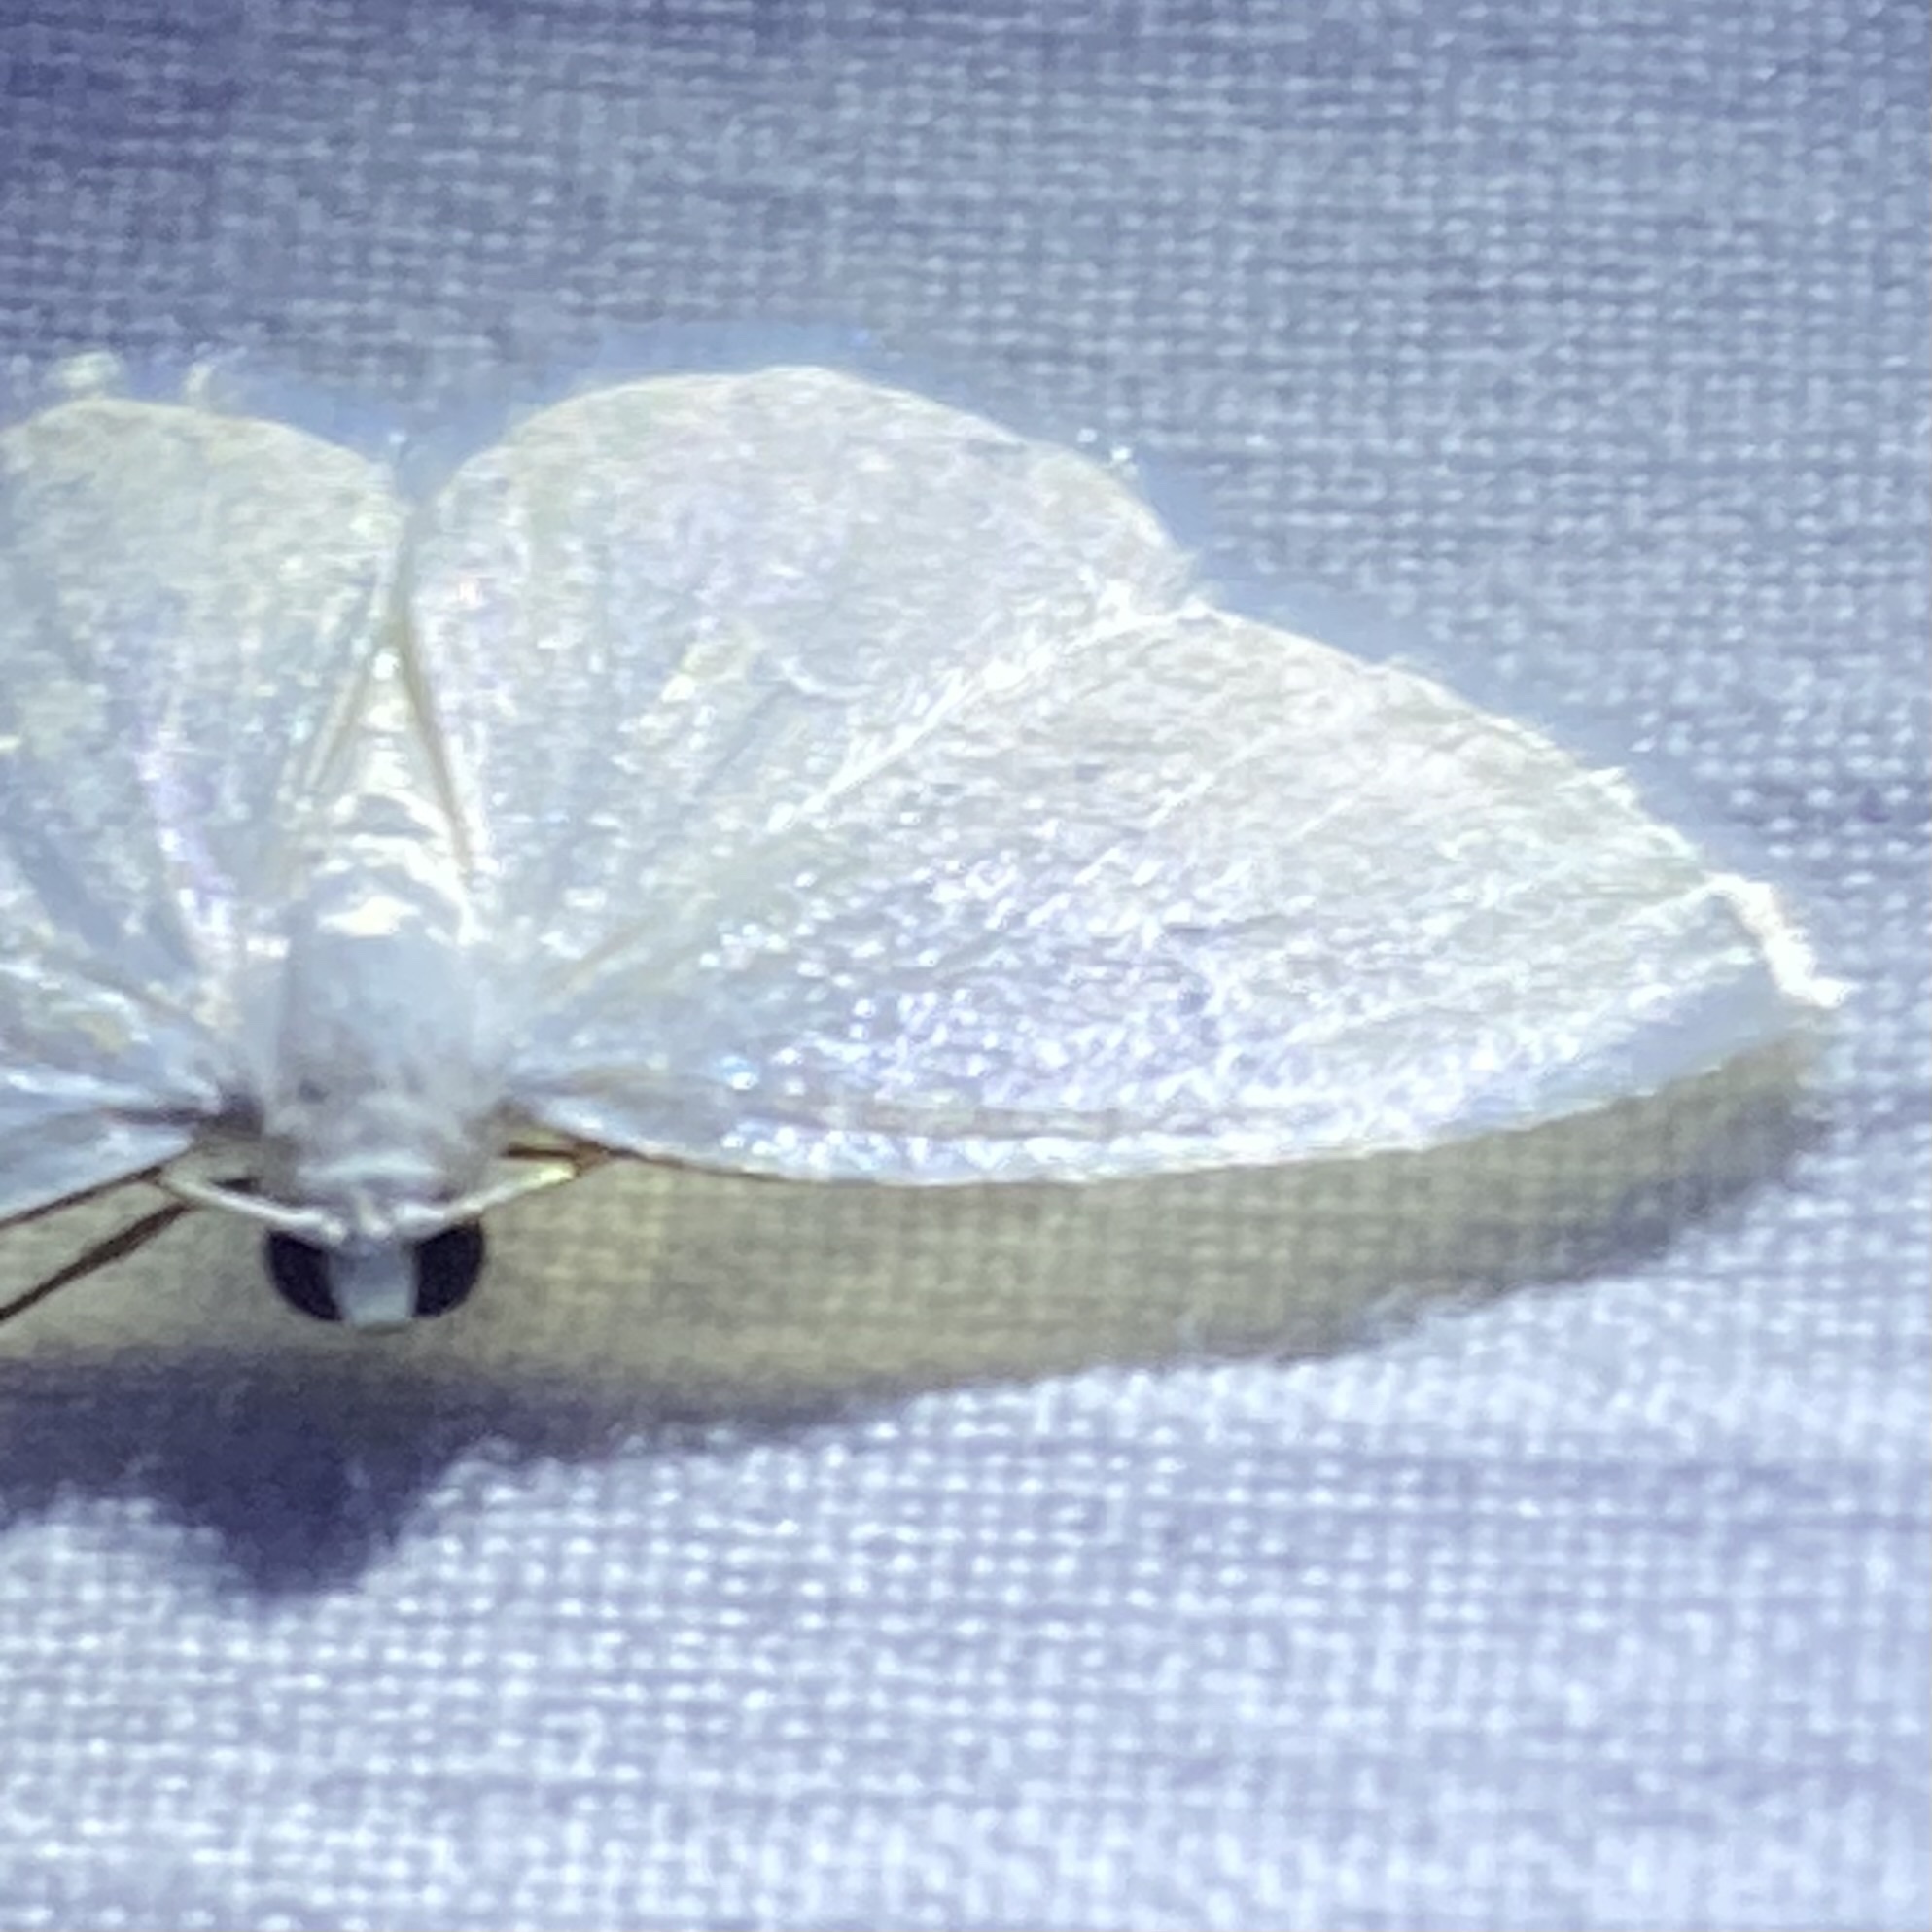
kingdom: Animalia
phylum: Arthropoda
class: Insecta
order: Lepidoptera
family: Geometridae
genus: Lomographa
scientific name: Lomographa vestaliata
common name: White spring moth
